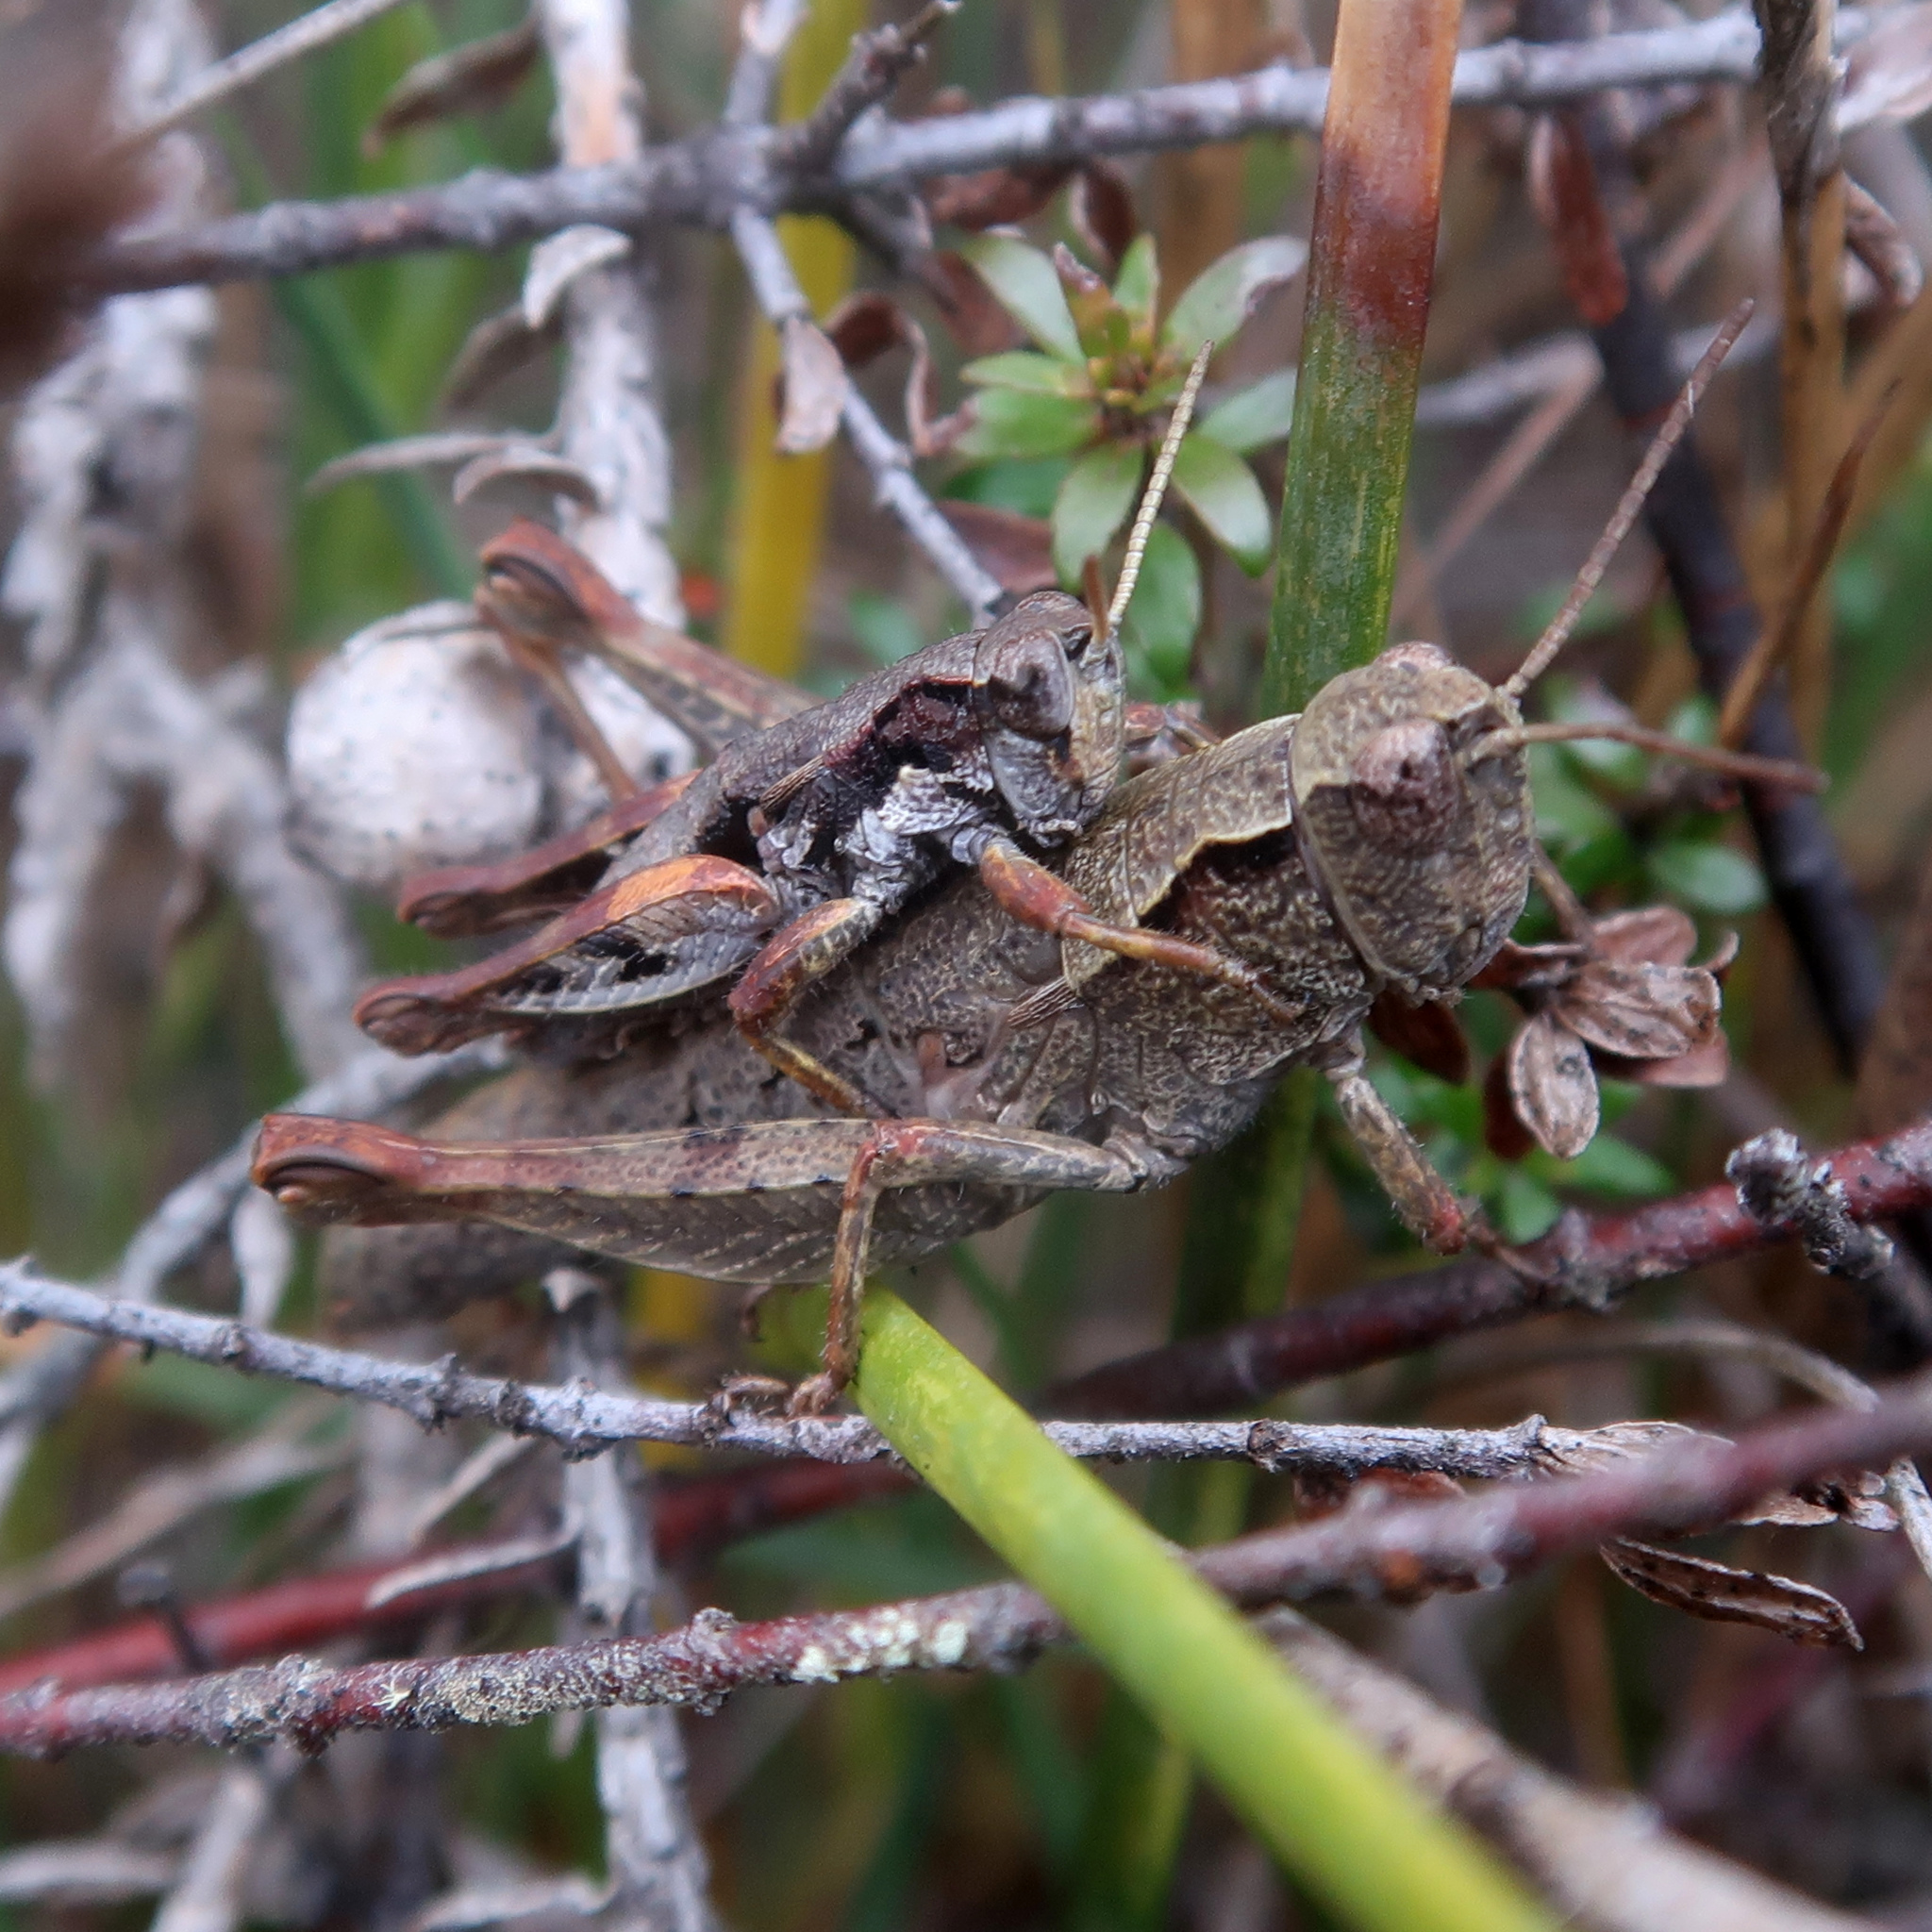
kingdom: Animalia
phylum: Arthropoda
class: Insecta
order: Orthoptera
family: Acrididae
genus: Tasmaniacris
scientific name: Tasmaniacris tasmaniensis
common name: Tasmanian grasshopper
